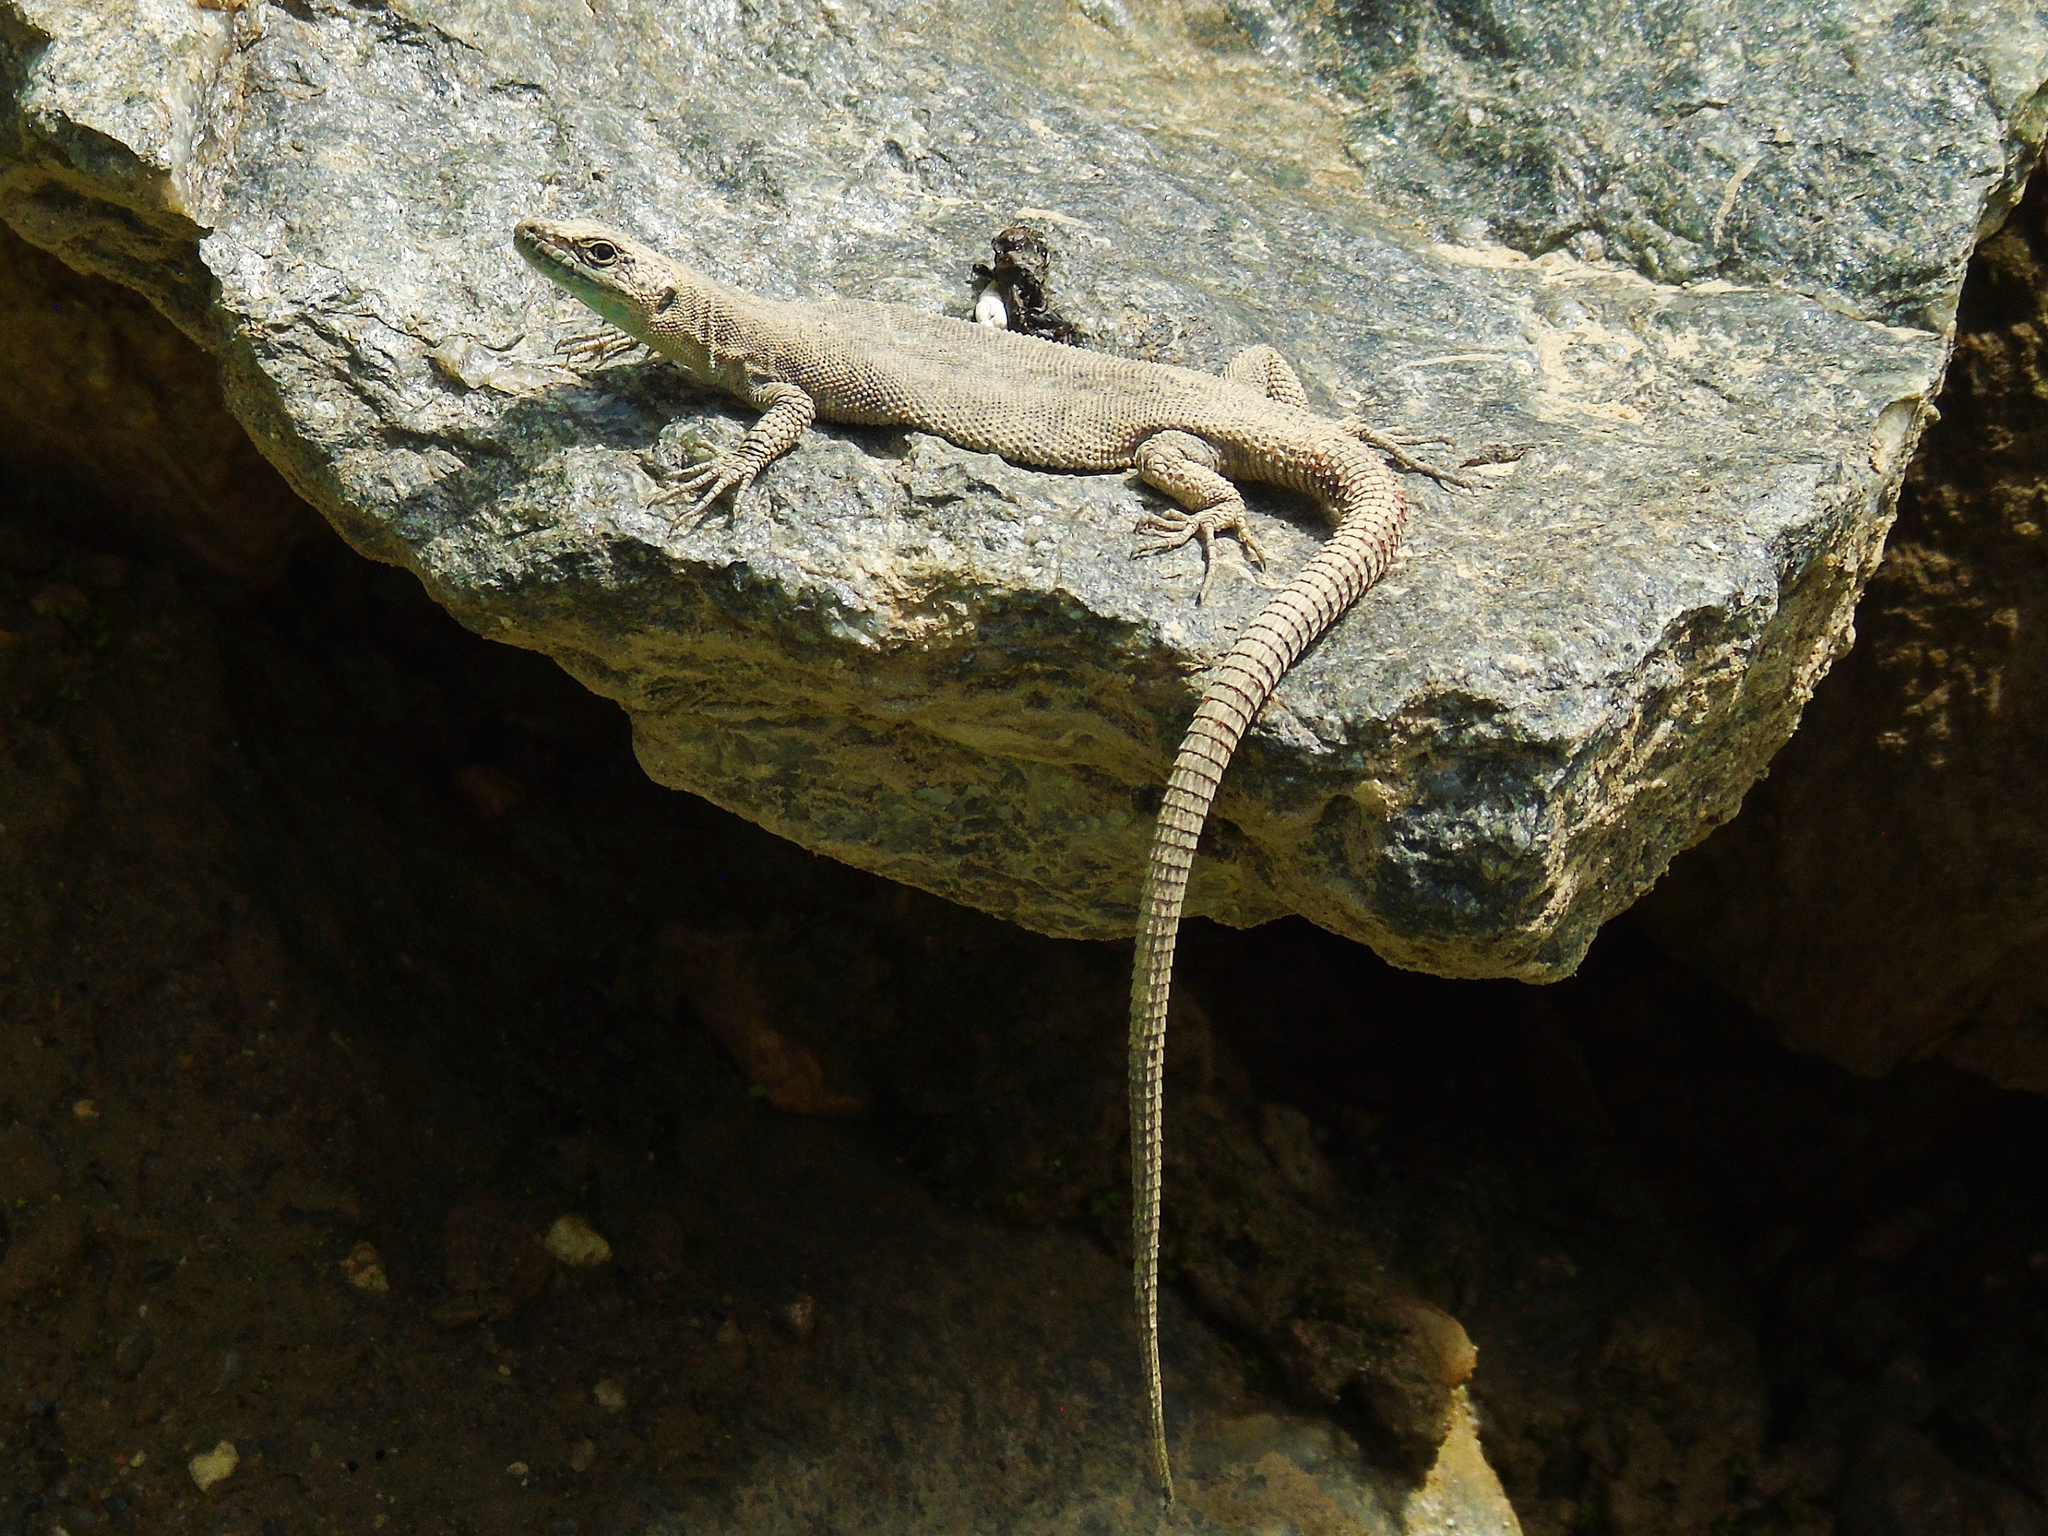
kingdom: Animalia
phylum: Chordata
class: Squamata
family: Lacertidae
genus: Darevskia
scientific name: Darevskia rudis
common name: Spiny-tailed lizard
